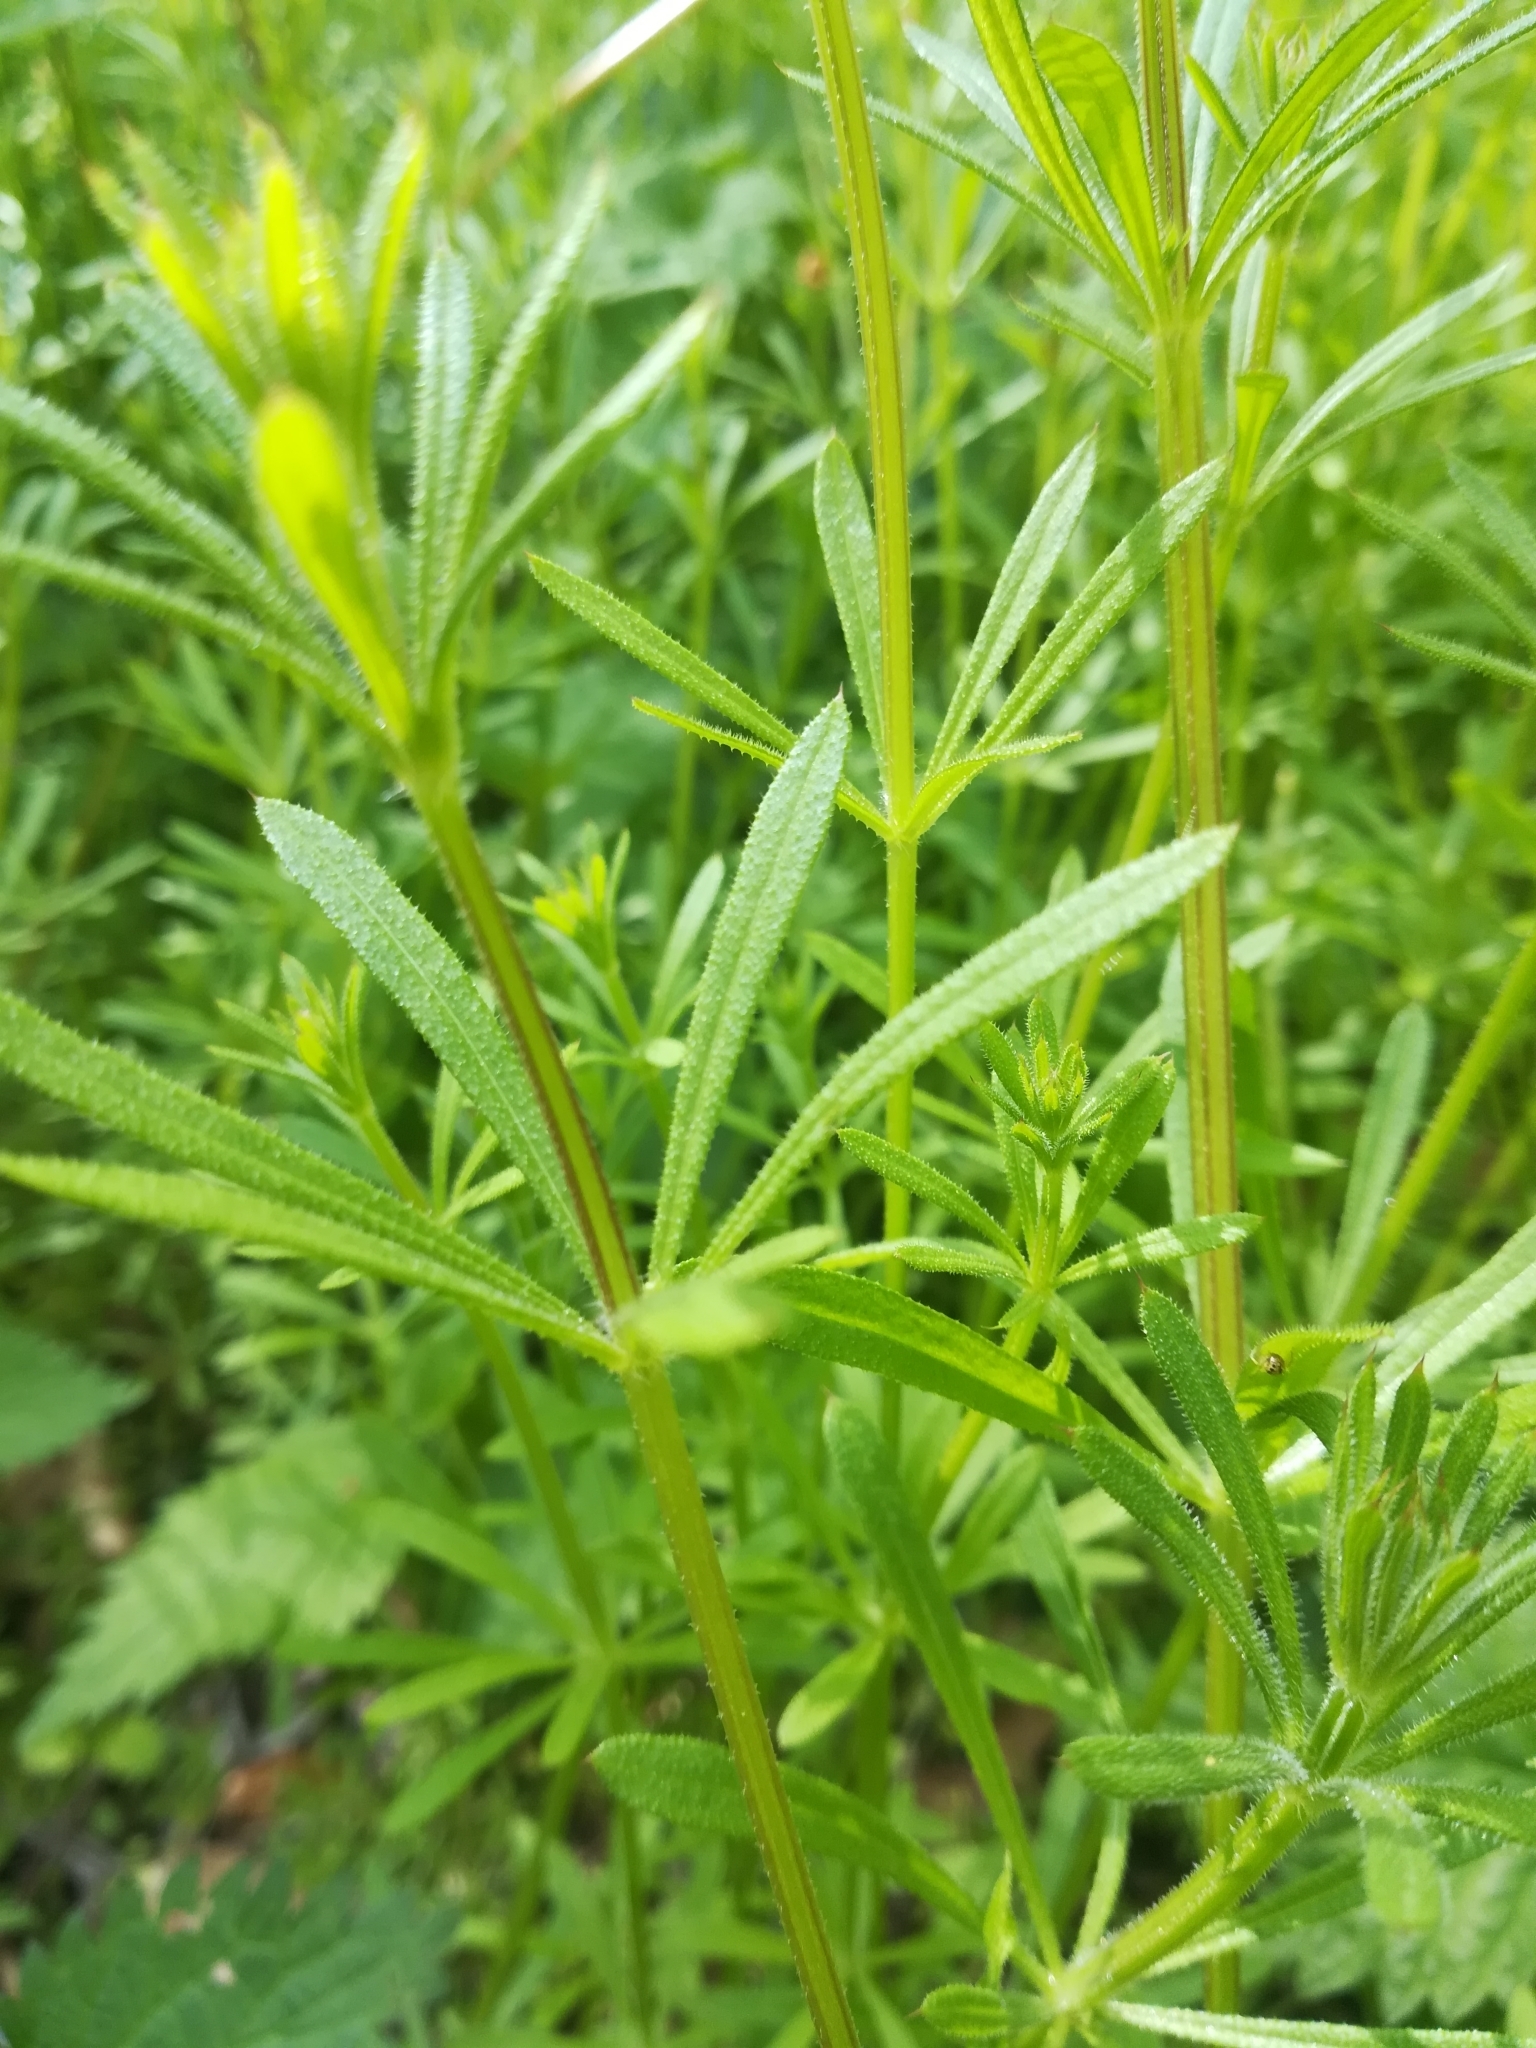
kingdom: Plantae
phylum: Tracheophyta
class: Magnoliopsida
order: Gentianales
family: Rubiaceae
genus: Galium
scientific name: Galium aparine
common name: Cleavers
